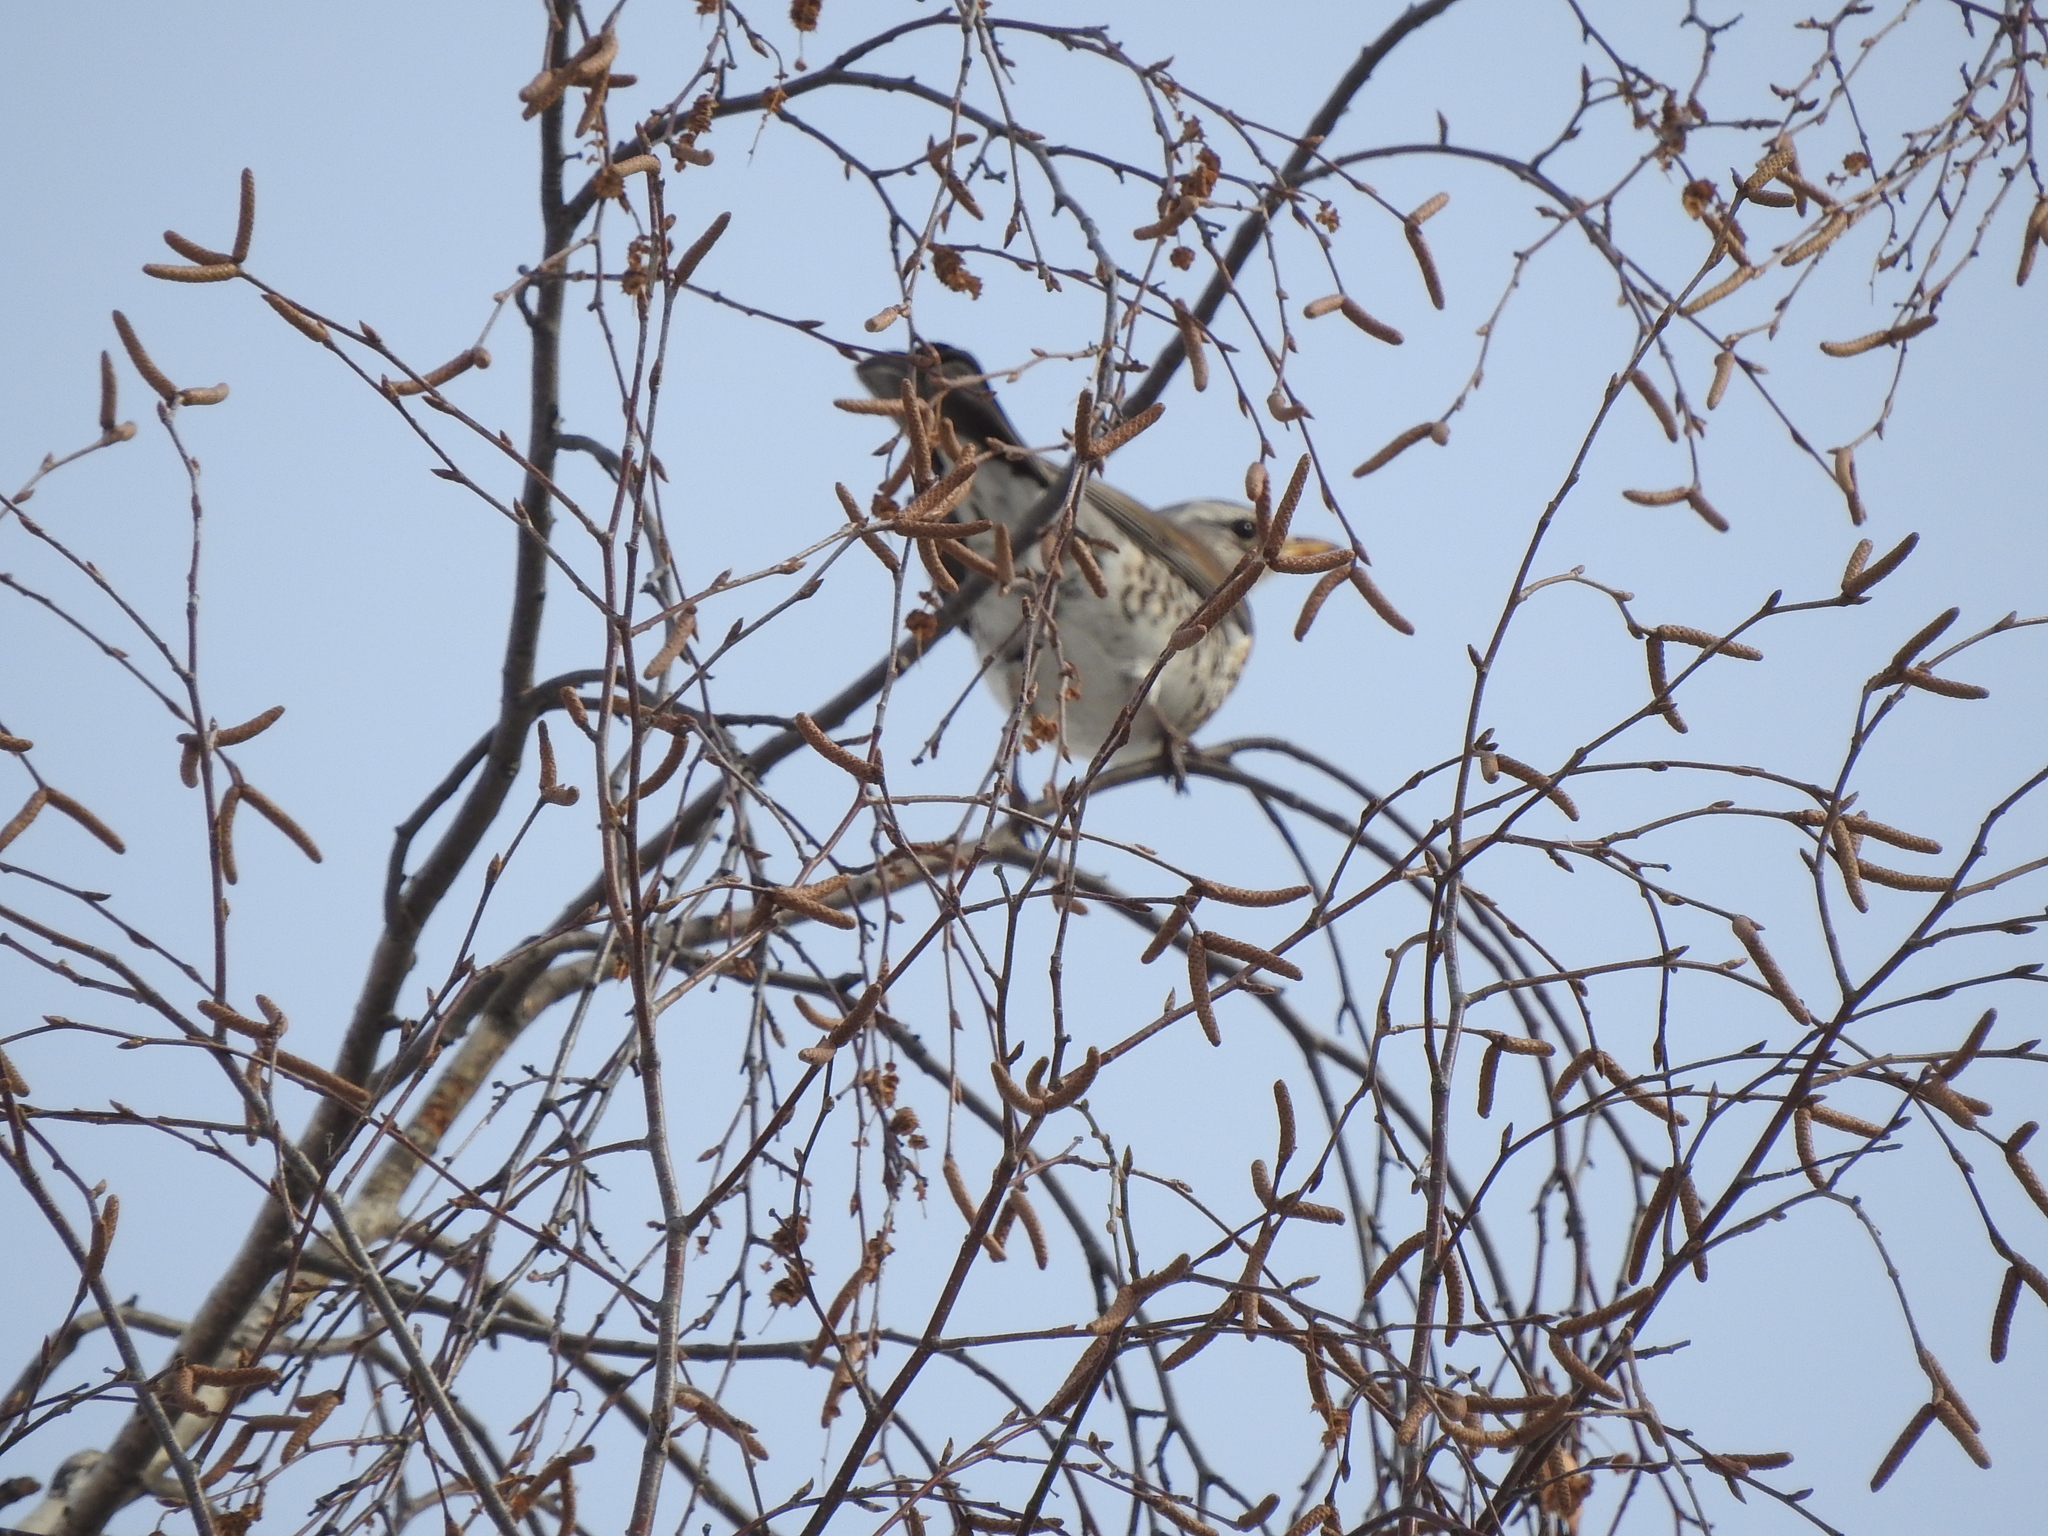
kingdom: Animalia
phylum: Chordata
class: Aves
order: Passeriformes
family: Turdidae
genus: Turdus
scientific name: Turdus pilaris
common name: Fieldfare
